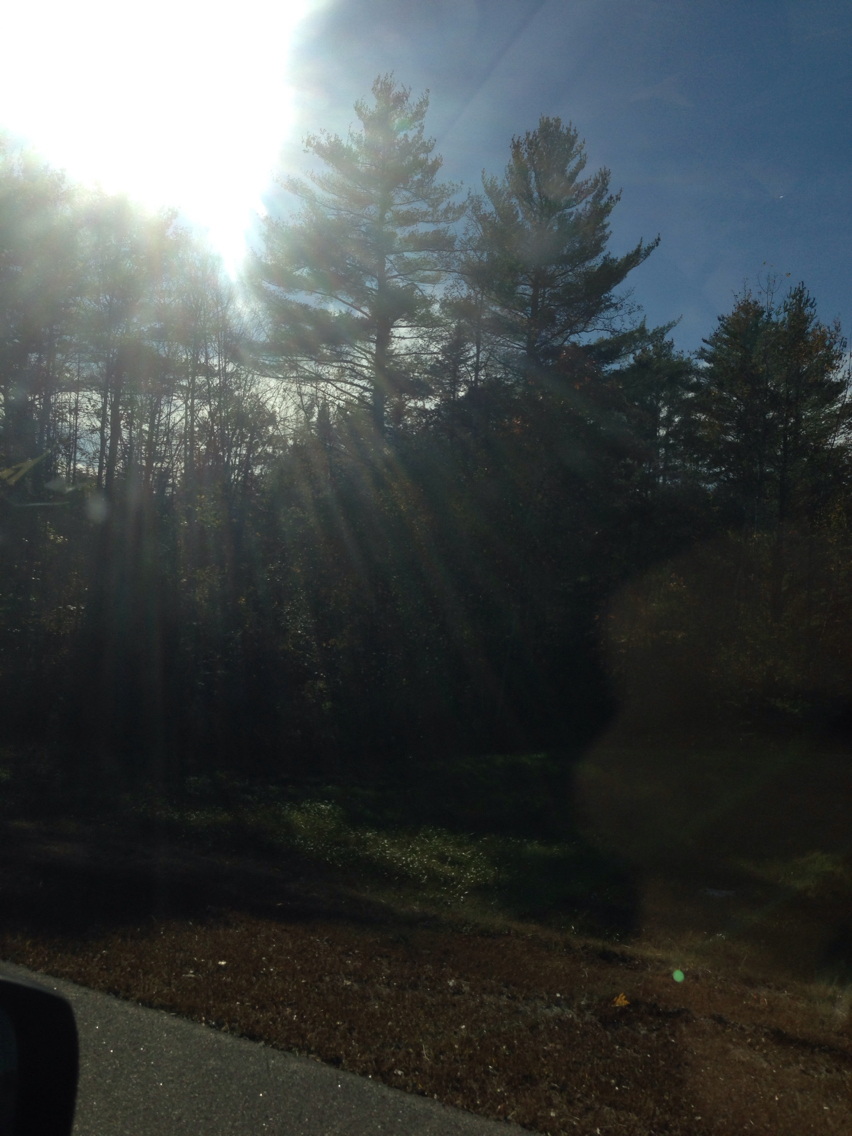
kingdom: Plantae
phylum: Tracheophyta
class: Pinopsida
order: Pinales
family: Pinaceae
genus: Pinus
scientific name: Pinus strobus
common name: Weymouth pine
